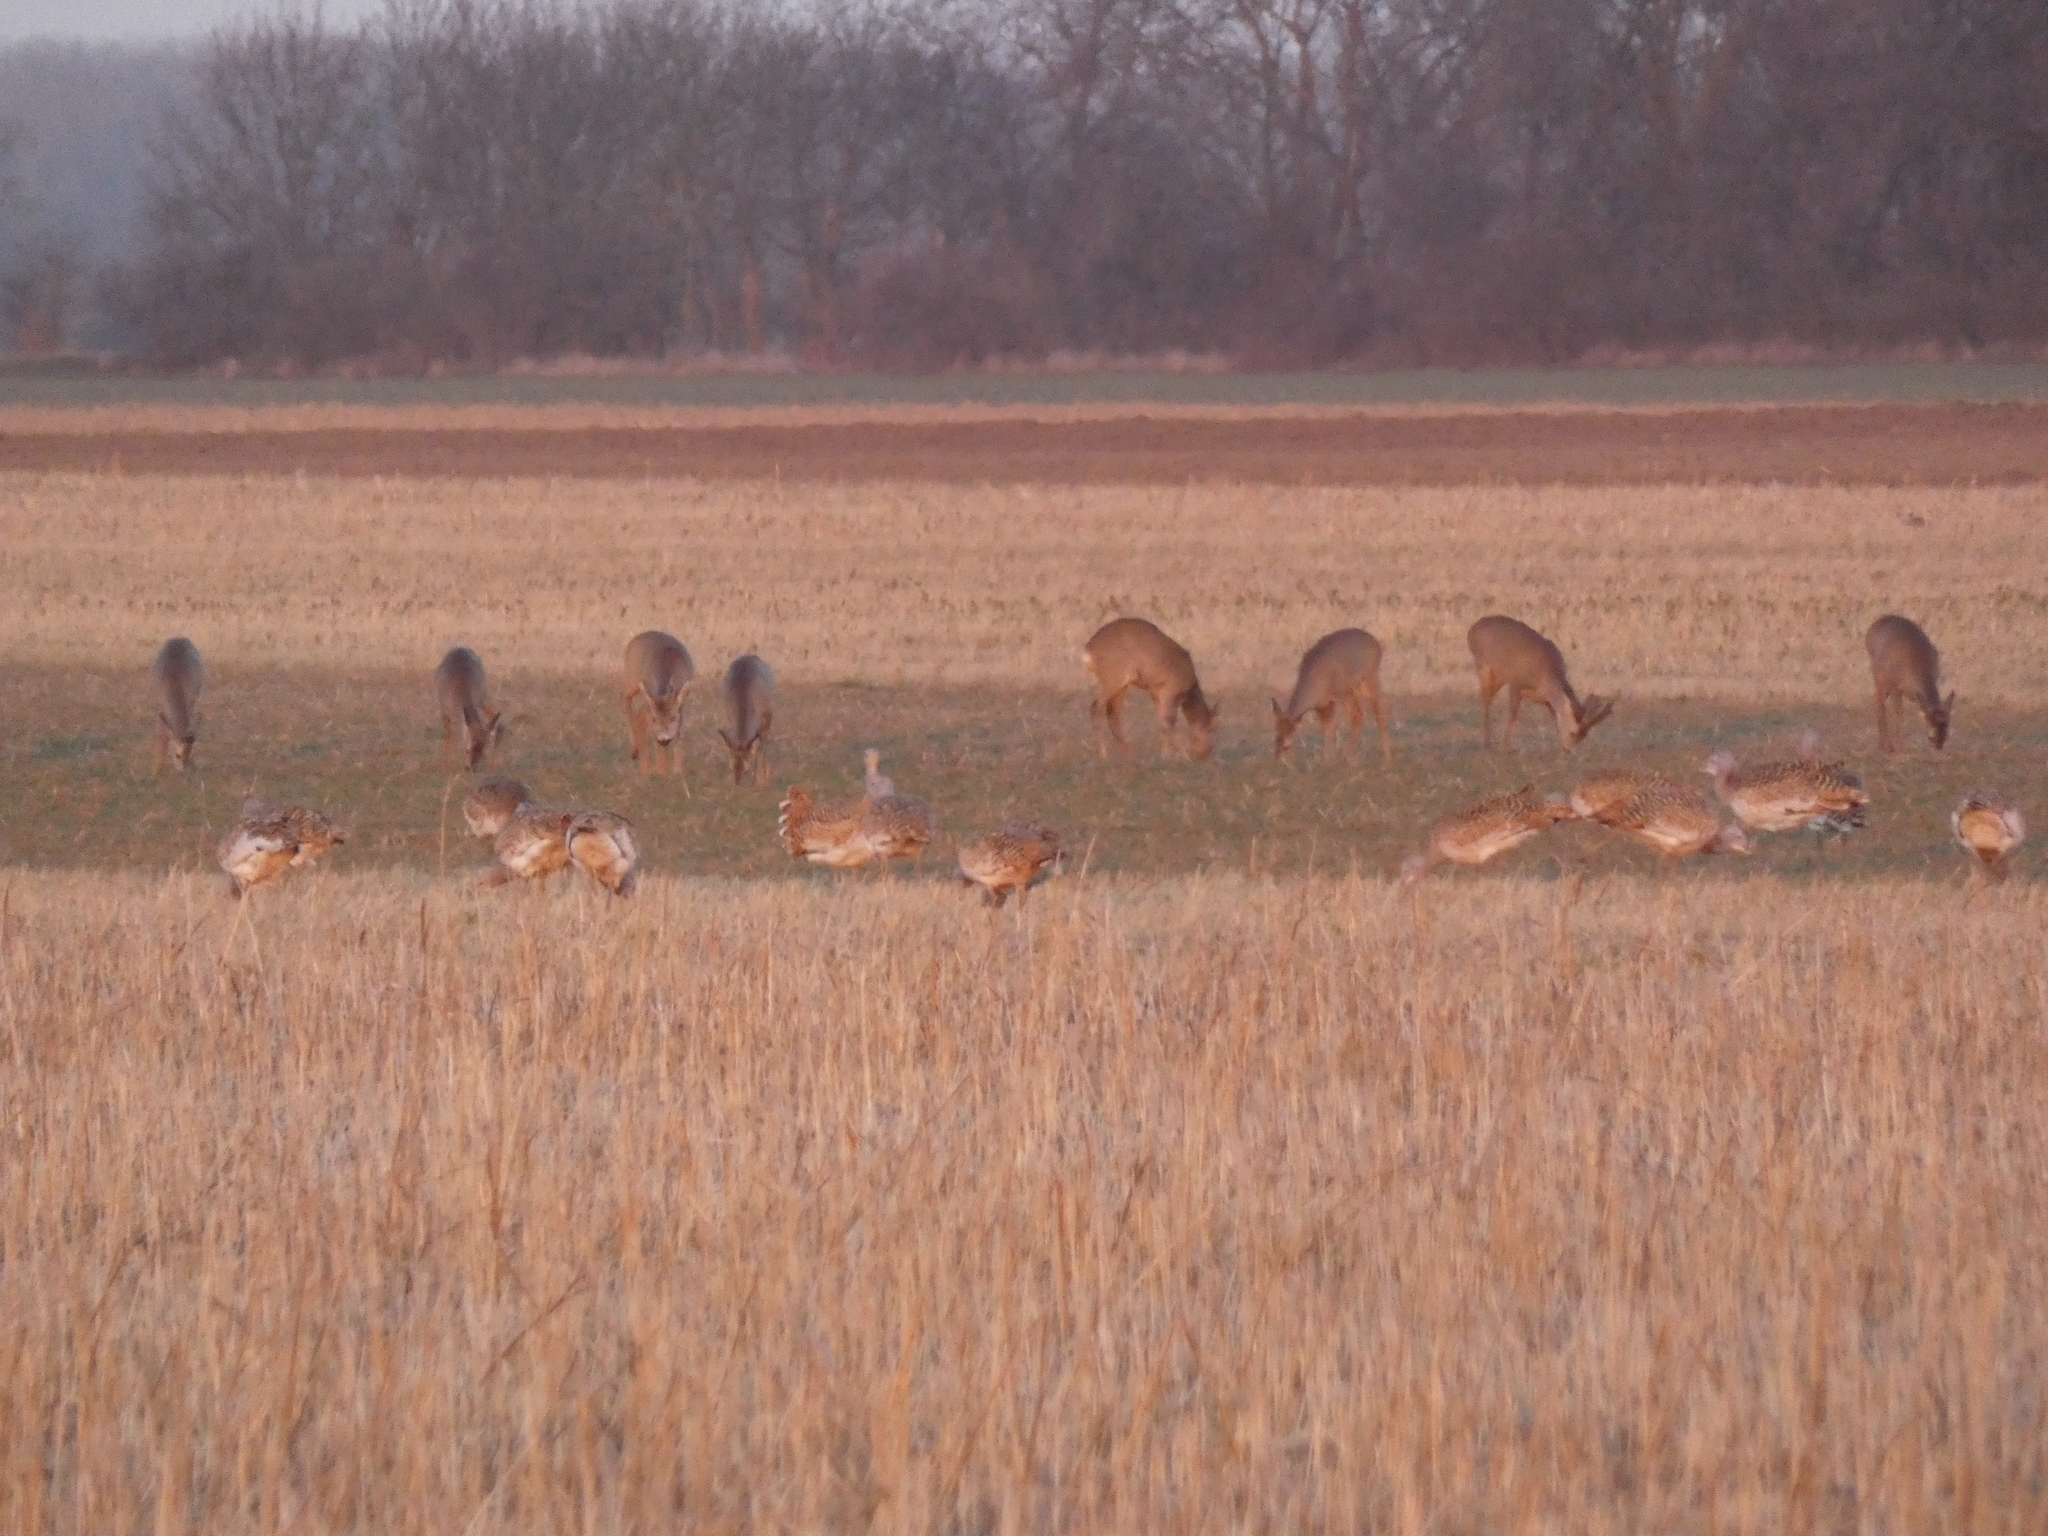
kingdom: Animalia
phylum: Chordata
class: Mammalia
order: Artiodactyla
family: Cervidae
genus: Capreolus
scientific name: Capreolus capreolus
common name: Western roe deer
